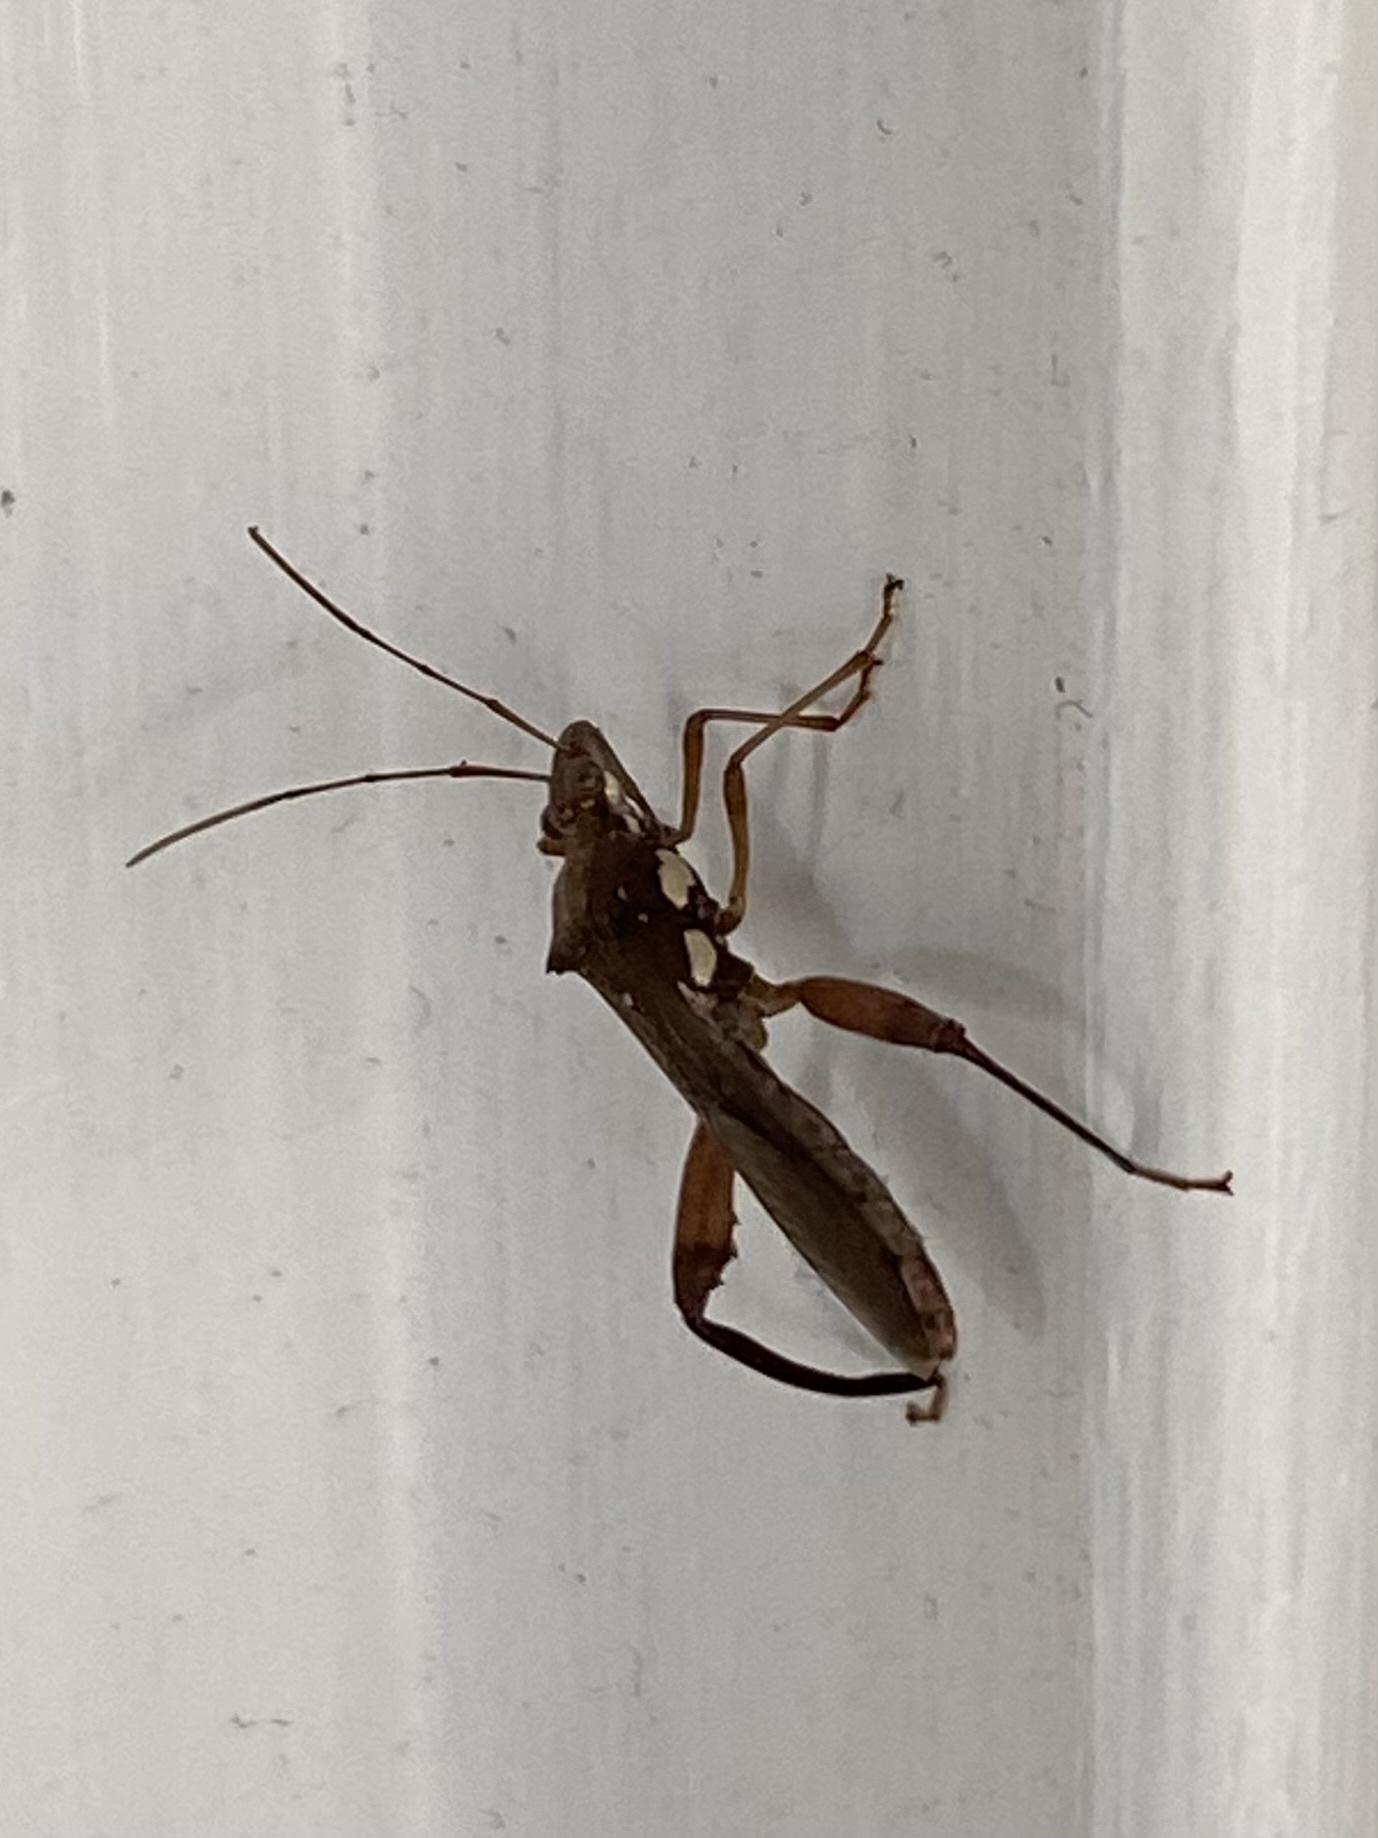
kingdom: Animalia
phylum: Arthropoda
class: Insecta
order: Hemiptera
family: Alydidae
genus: Hyalymenus
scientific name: Hyalymenus tarsatus
